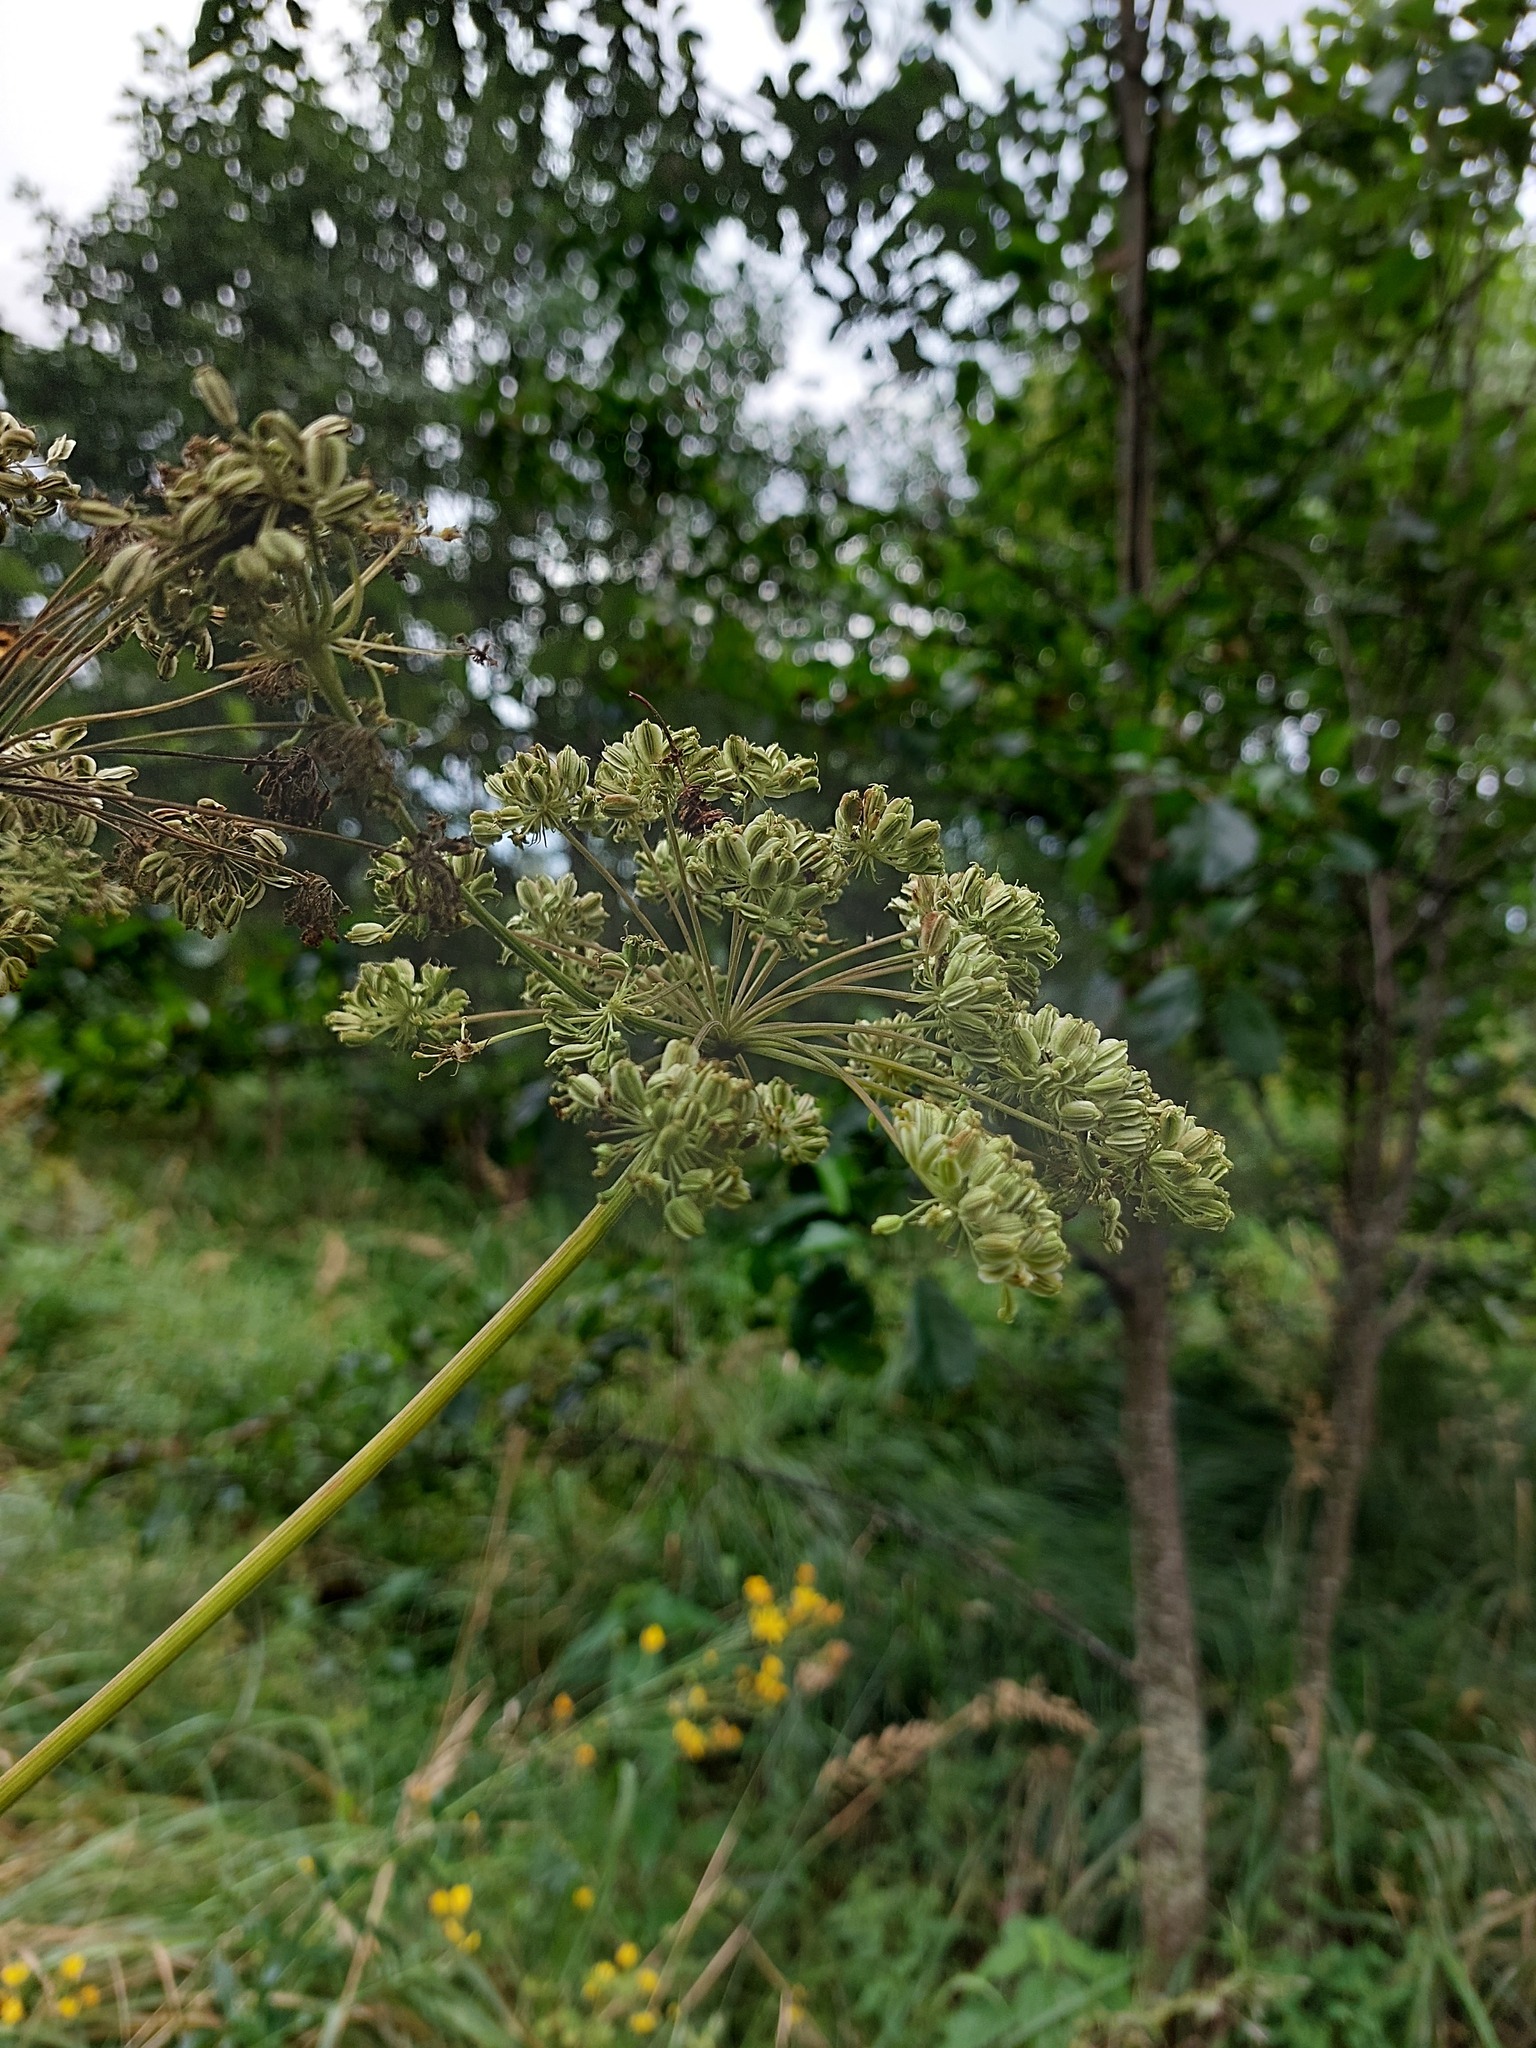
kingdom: Plantae
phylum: Tracheophyta
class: Magnoliopsida
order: Apiales
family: Apiaceae
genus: Angelica
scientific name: Angelica sylvestris
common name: Wild angelica
